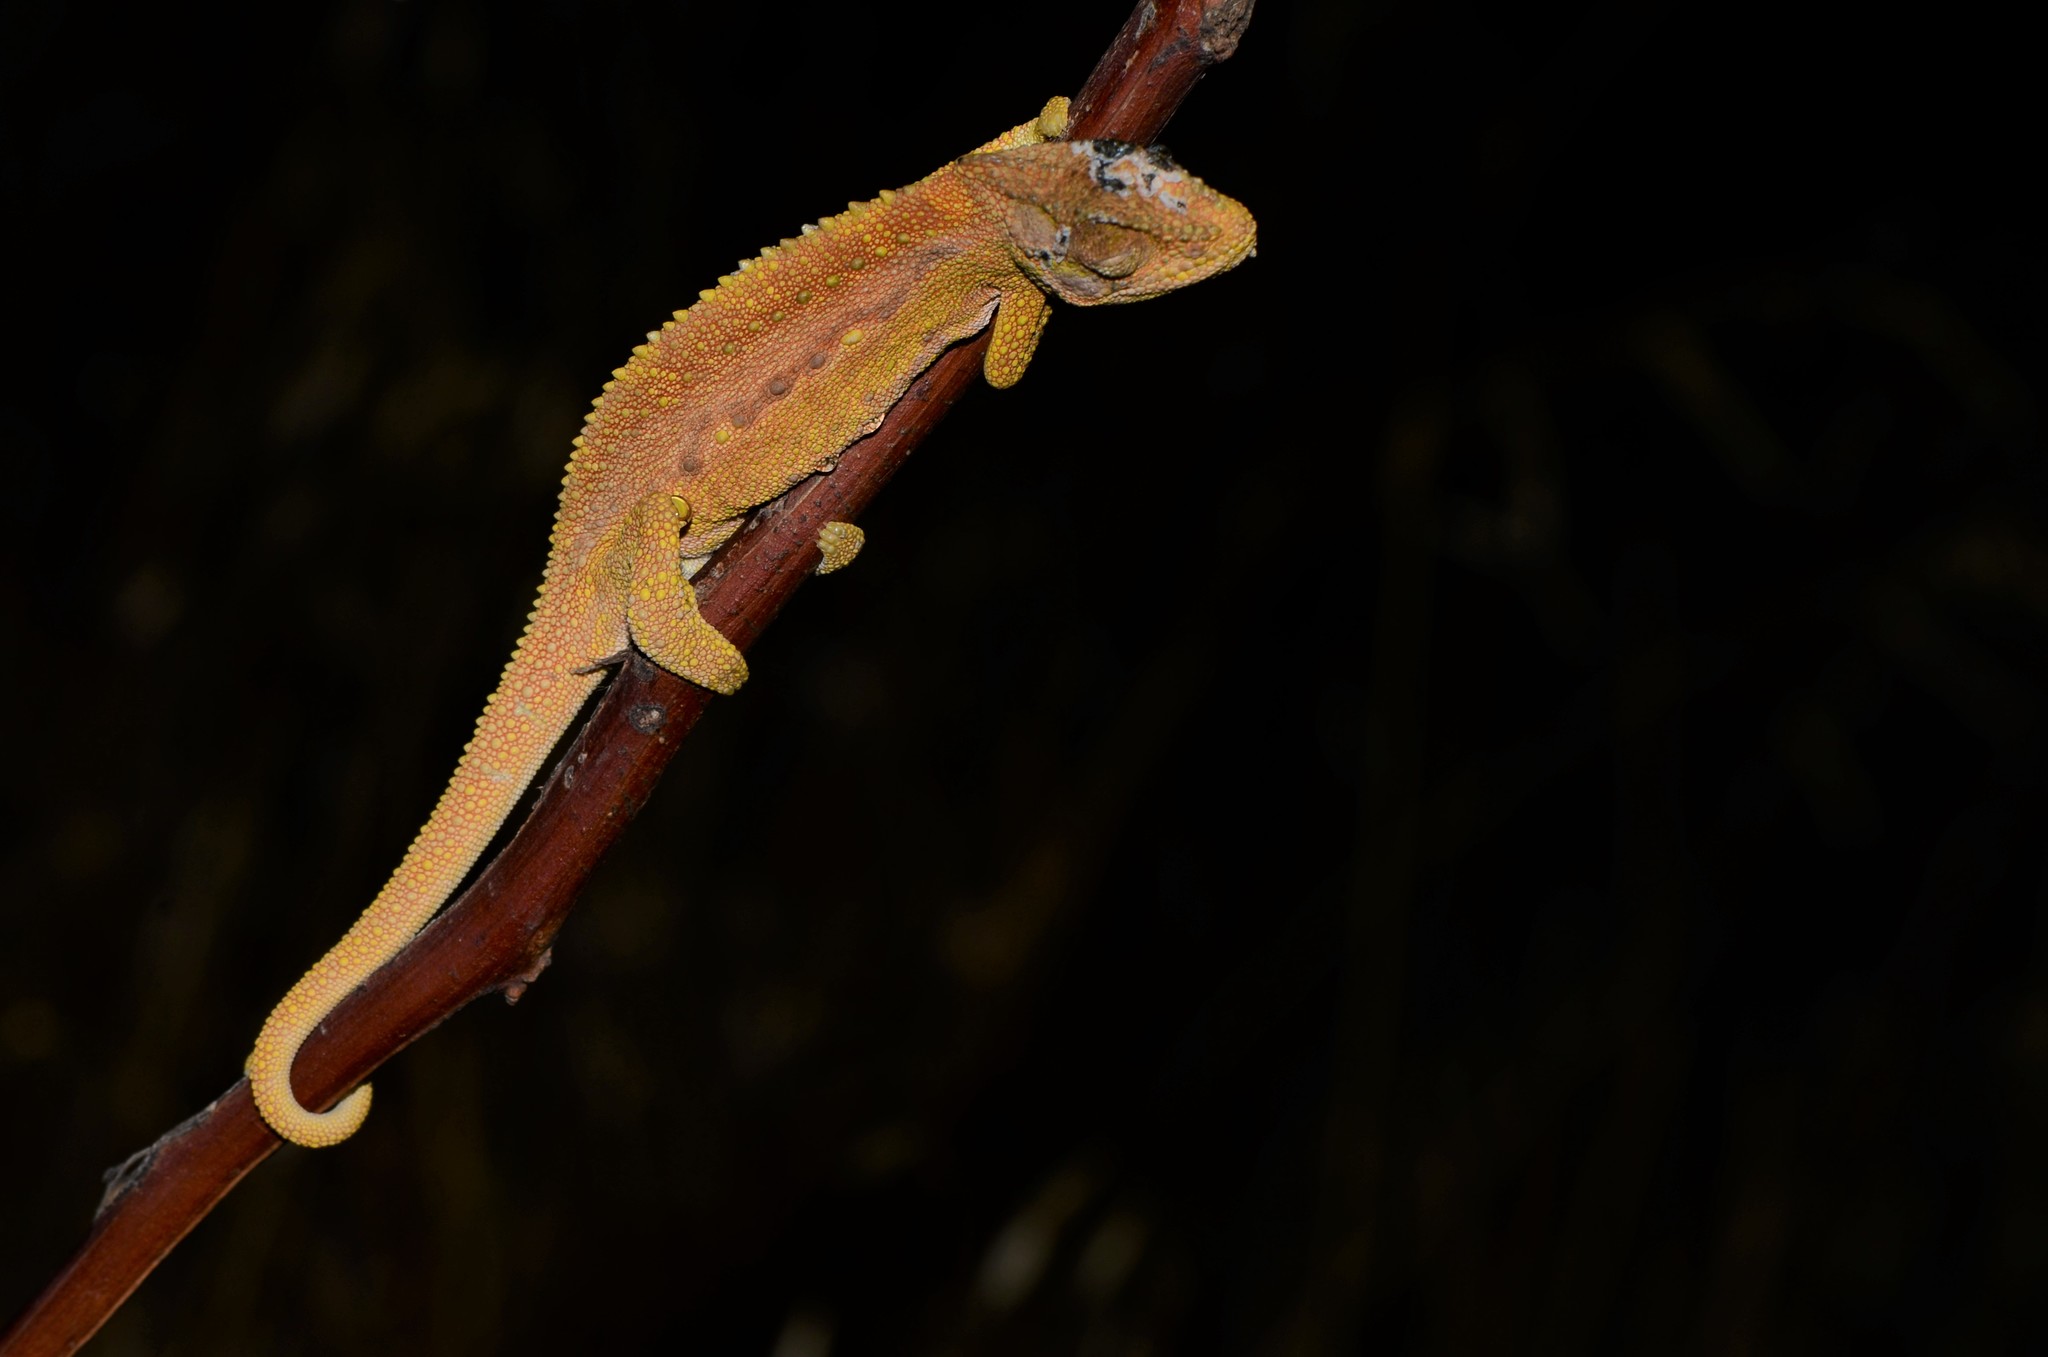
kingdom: Animalia
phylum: Chordata
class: Squamata
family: Chamaeleonidae
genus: Bradypodion
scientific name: Bradypodion pumilum
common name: Cape dwarf chameleon
